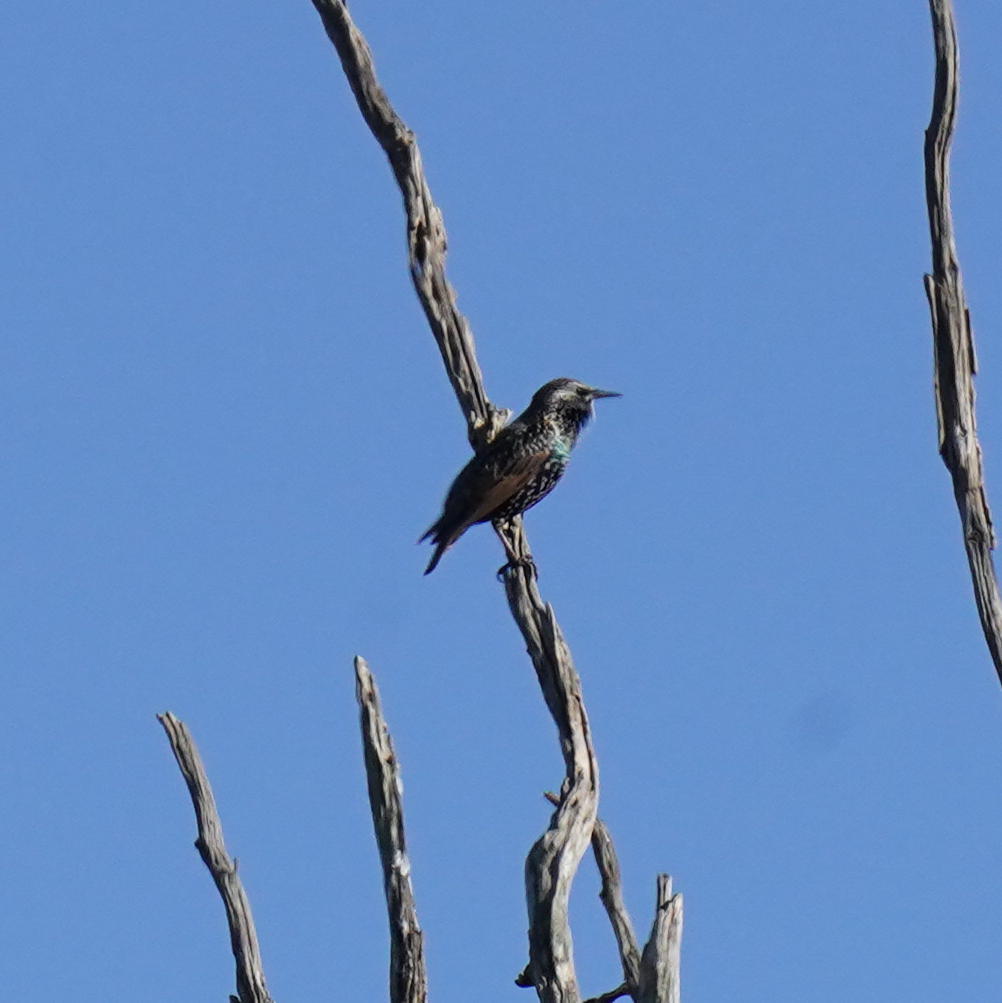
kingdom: Animalia
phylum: Chordata
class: Aves
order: Passeriformes
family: Sturnidae
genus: Sturnus
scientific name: Sturnus vulgaris
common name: Common starling
